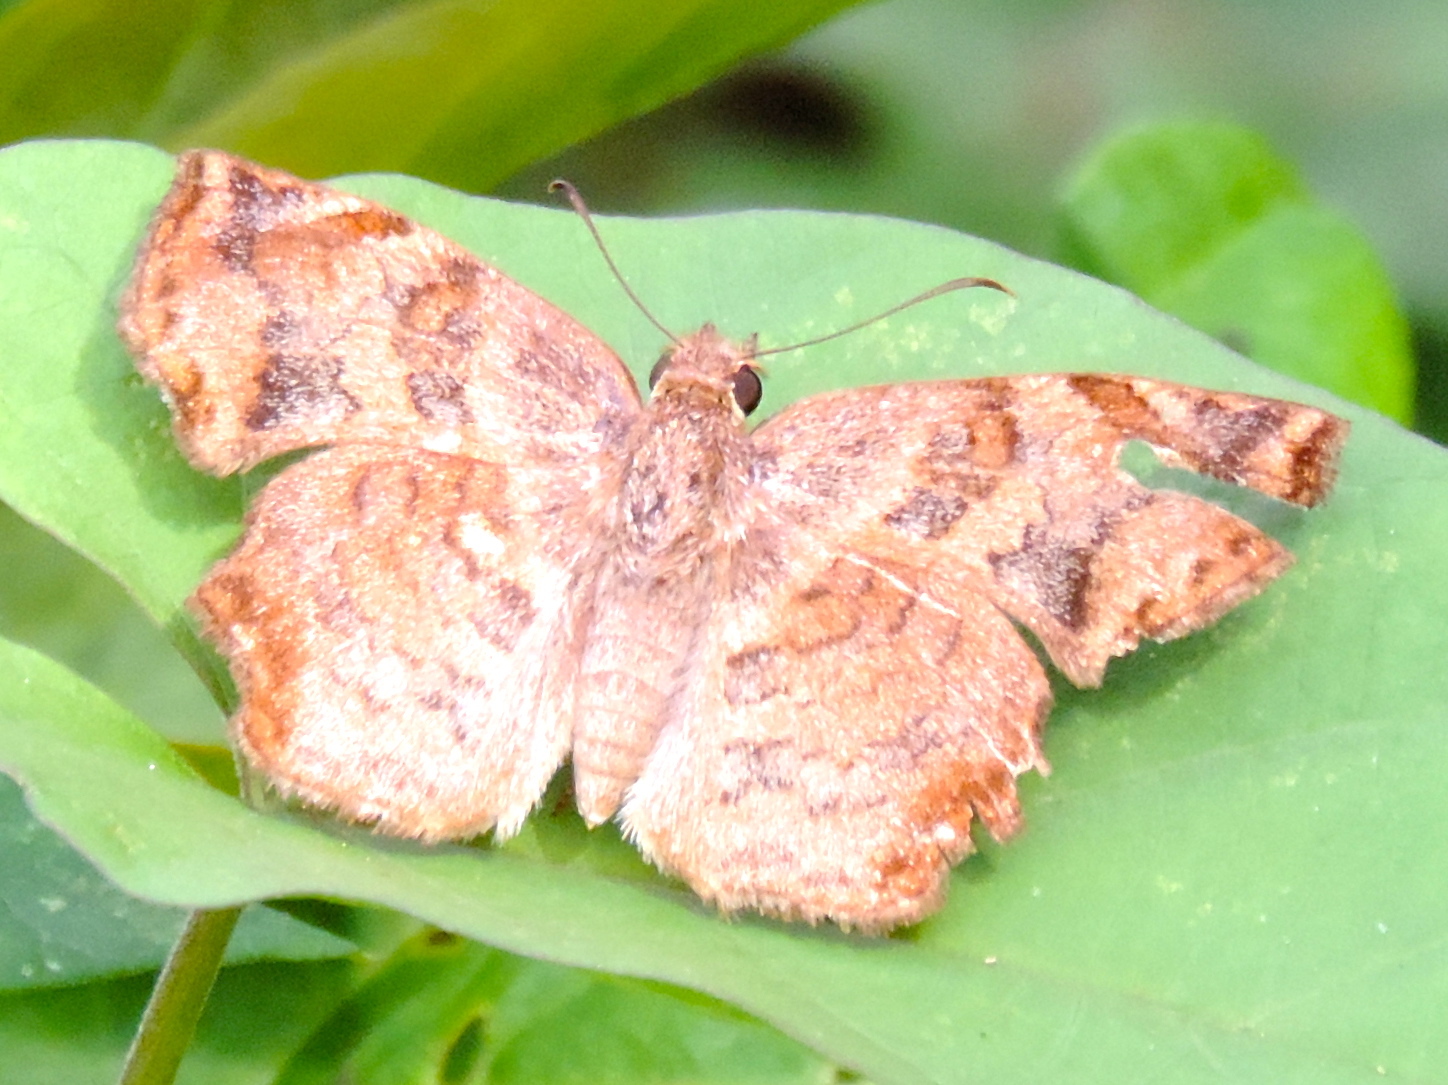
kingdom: Animalia
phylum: Arthropoda
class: Insecta
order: Lepidoptera
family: Hesperiidae
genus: Antigonus
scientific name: Antigonus erosus
